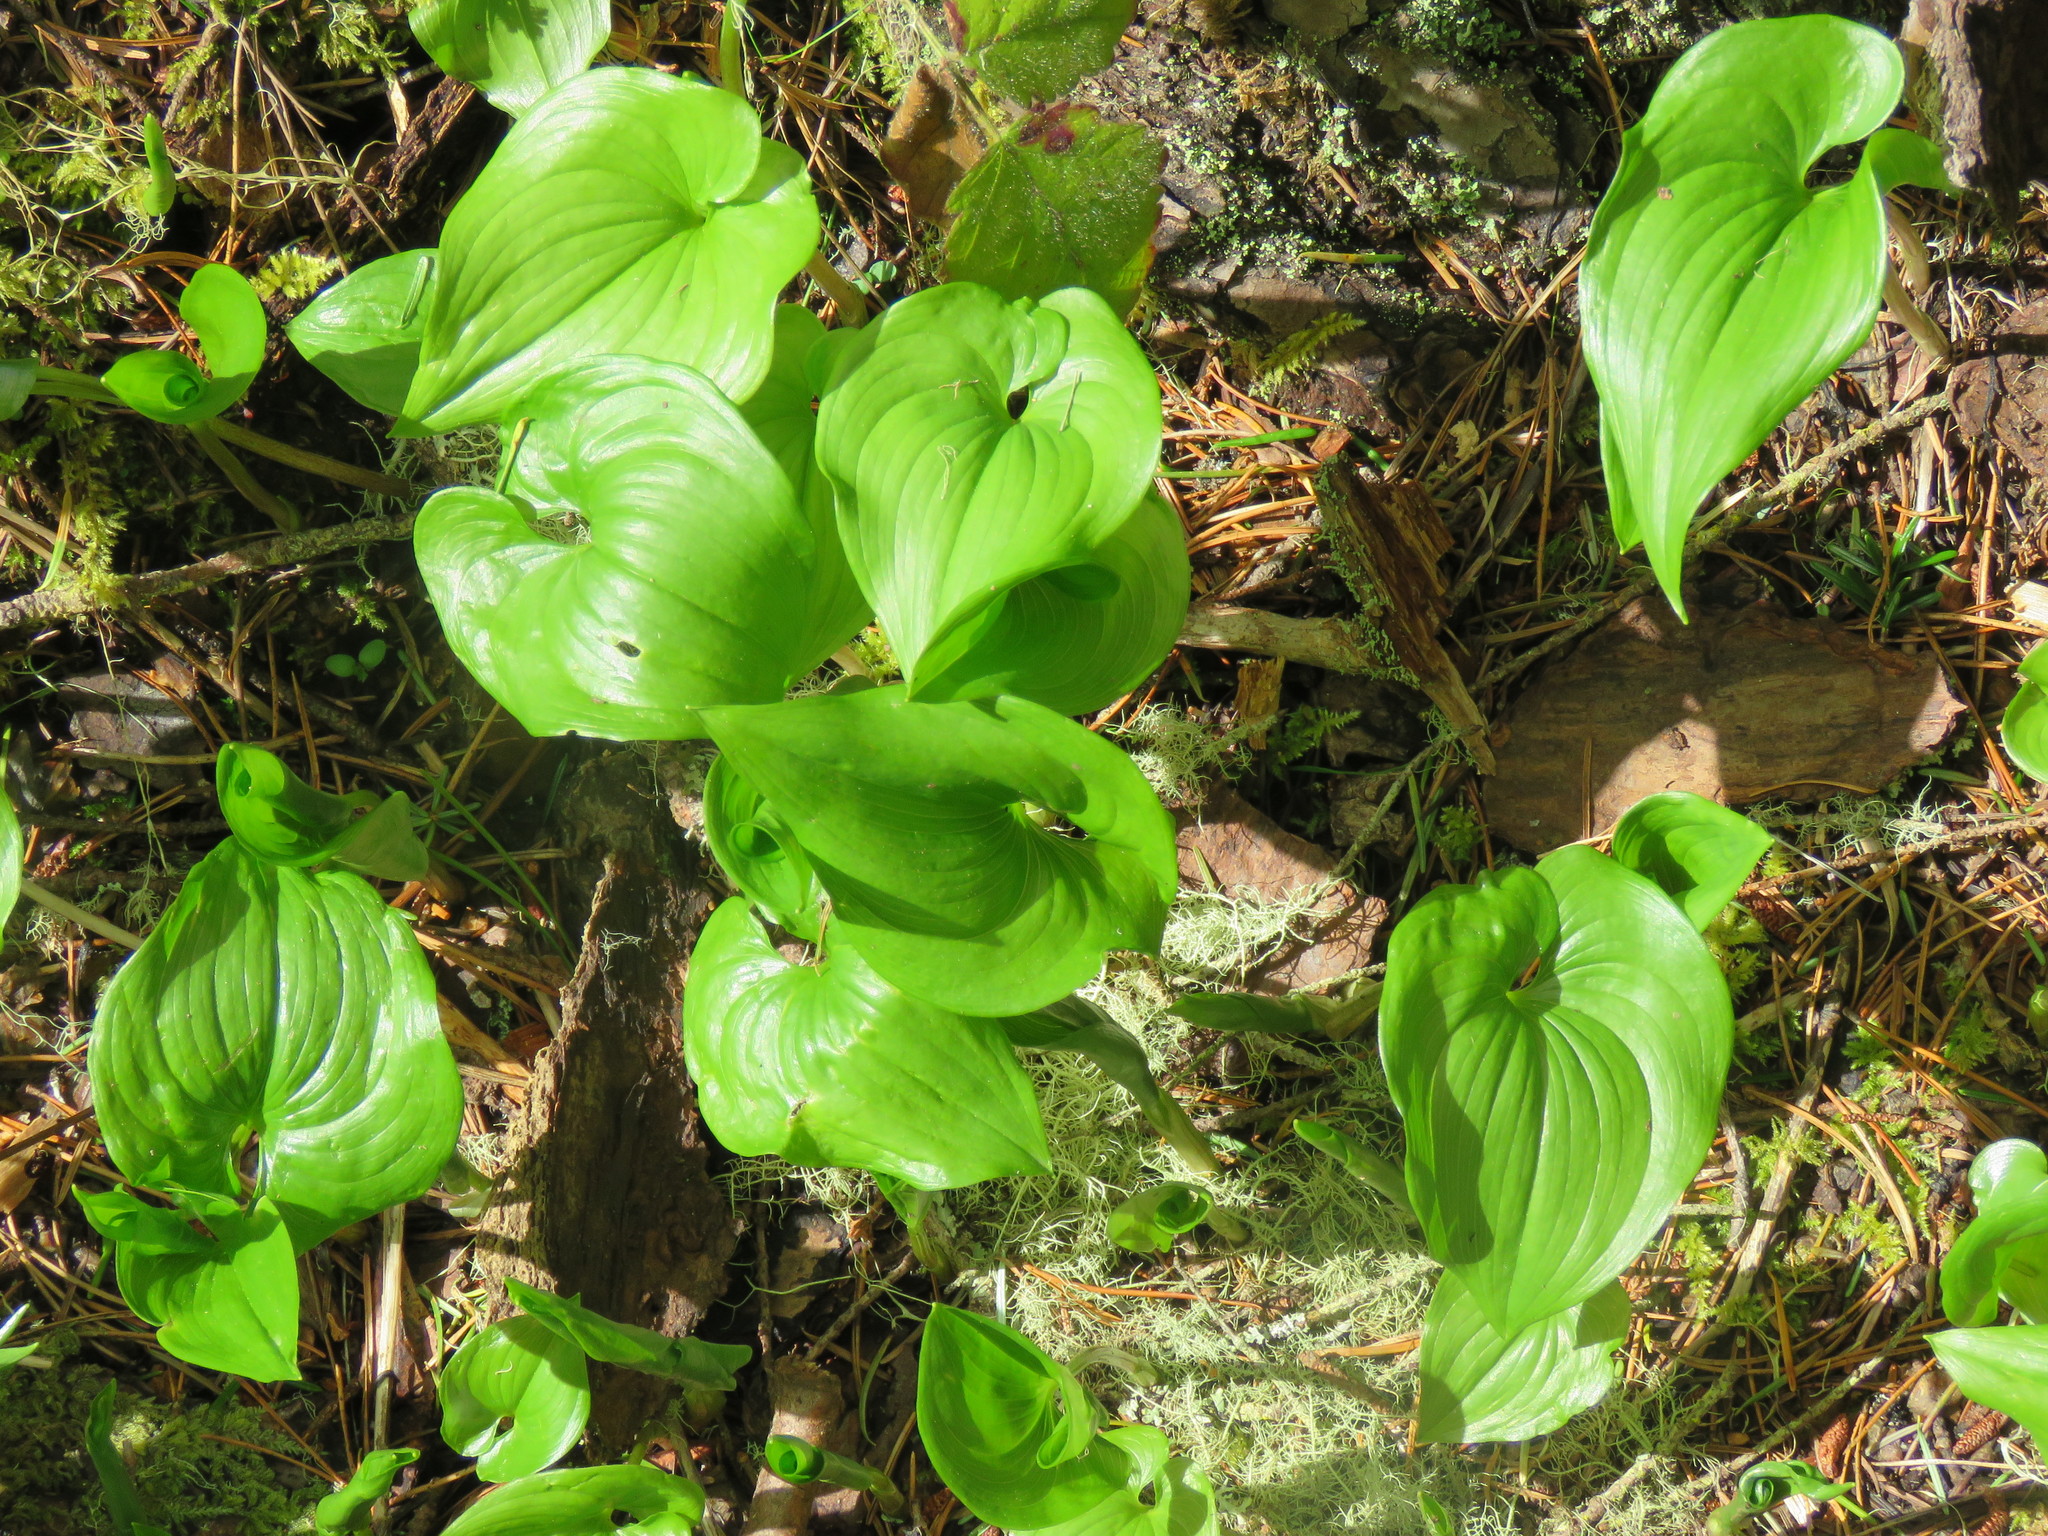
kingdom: Plantae
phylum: Tracheophyta
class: Liliopsida
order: Asparagales
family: Asparagaceae
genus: Maianthemum
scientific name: Maianthemum dilatatum
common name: False lily-of-the-valley
